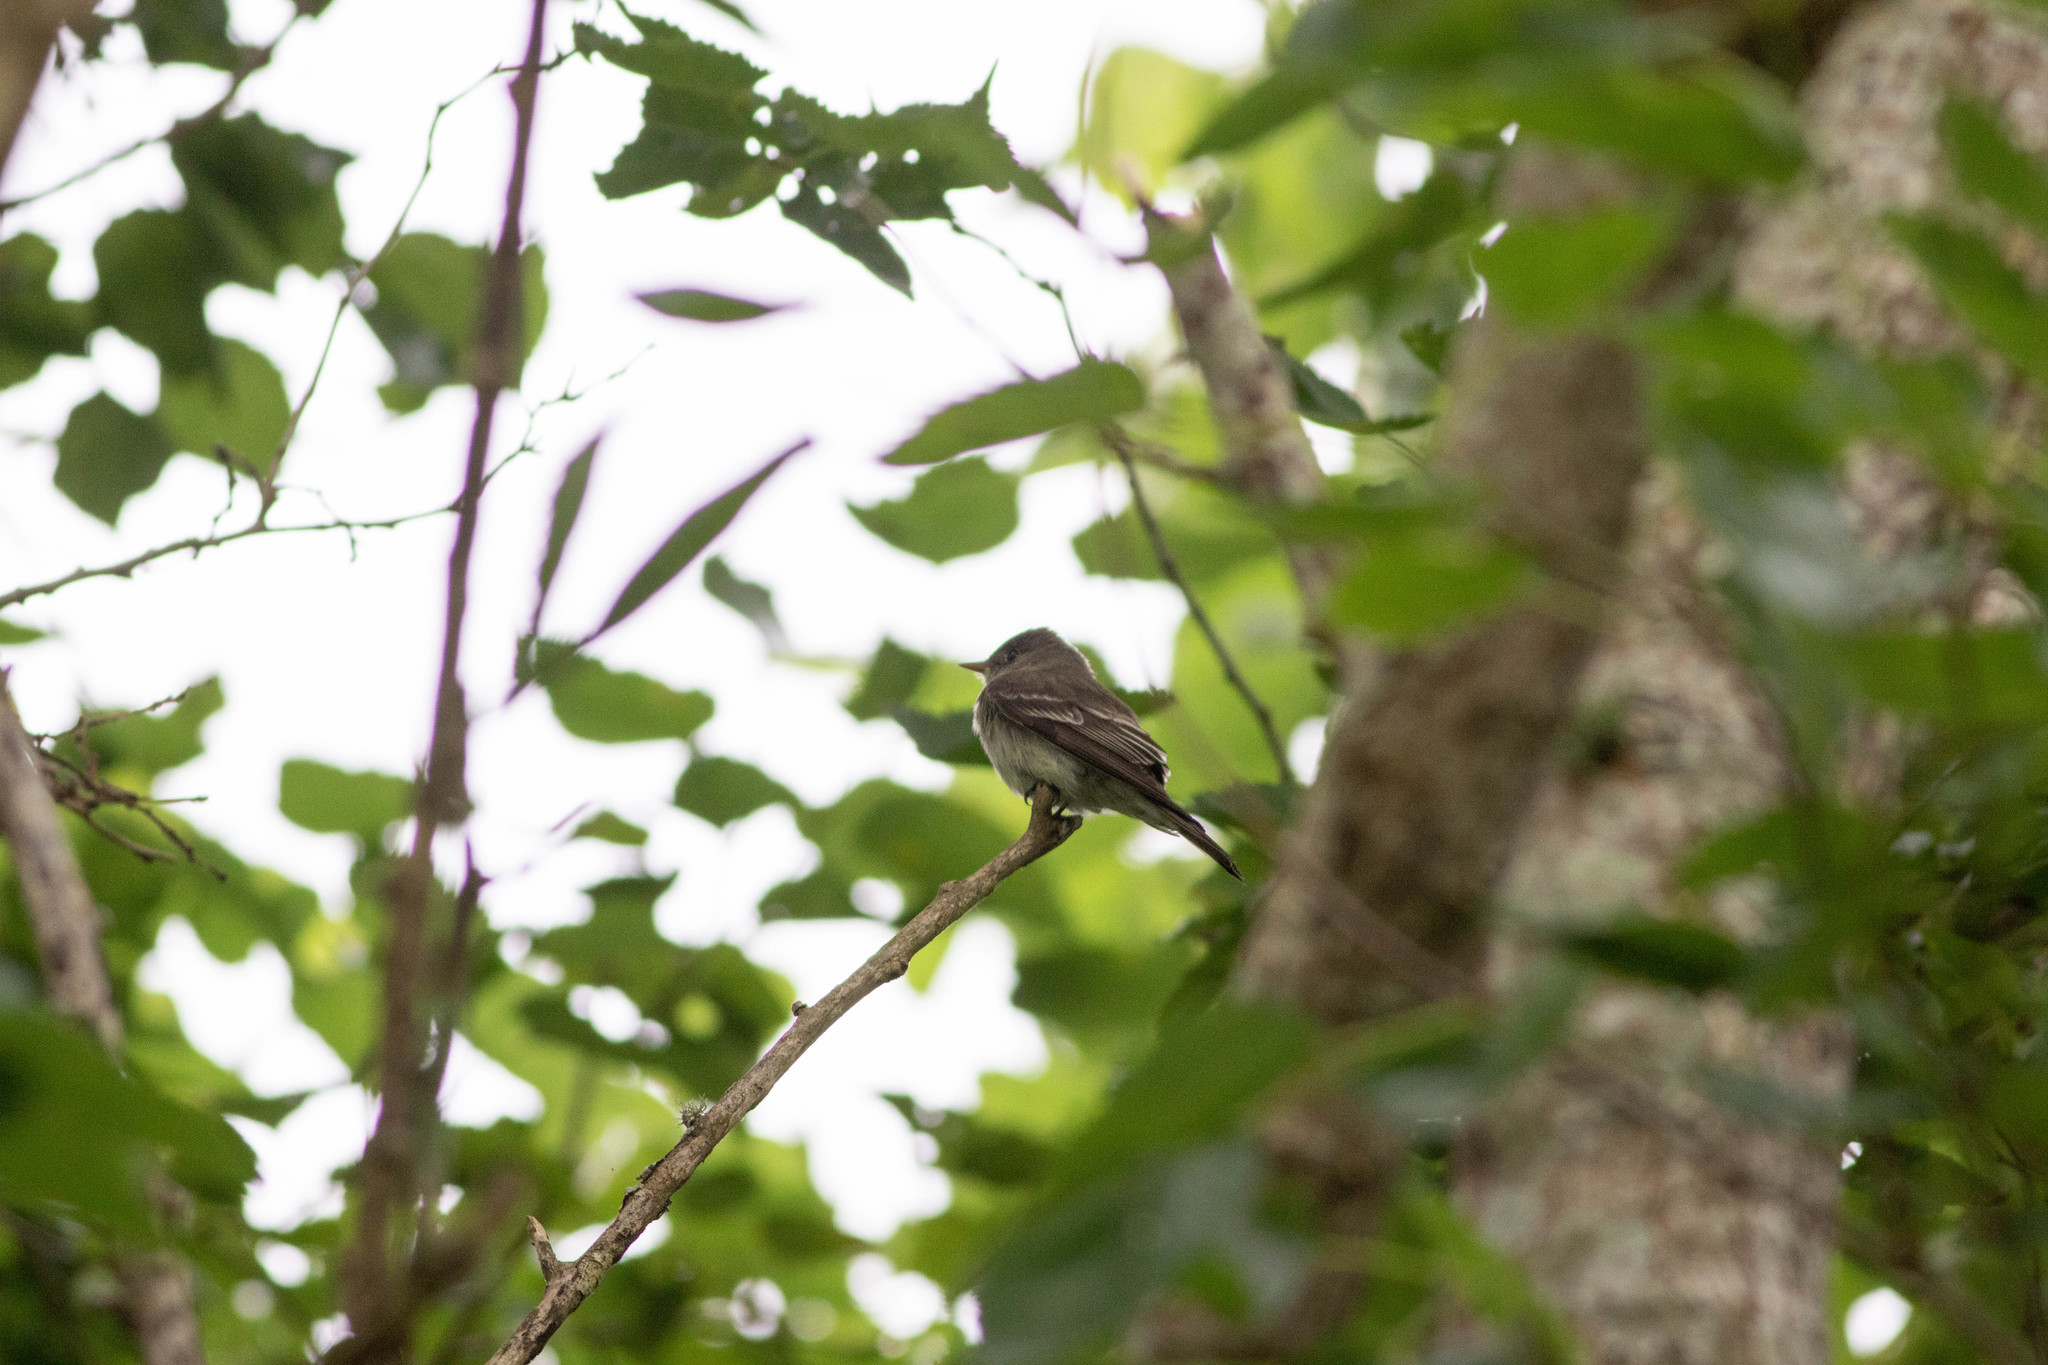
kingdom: Animalia
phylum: Chordata
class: Aves
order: Passeriformes
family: Tyrannidae
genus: Contopus
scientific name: Contopus virens
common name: Eastern wood-pewee
